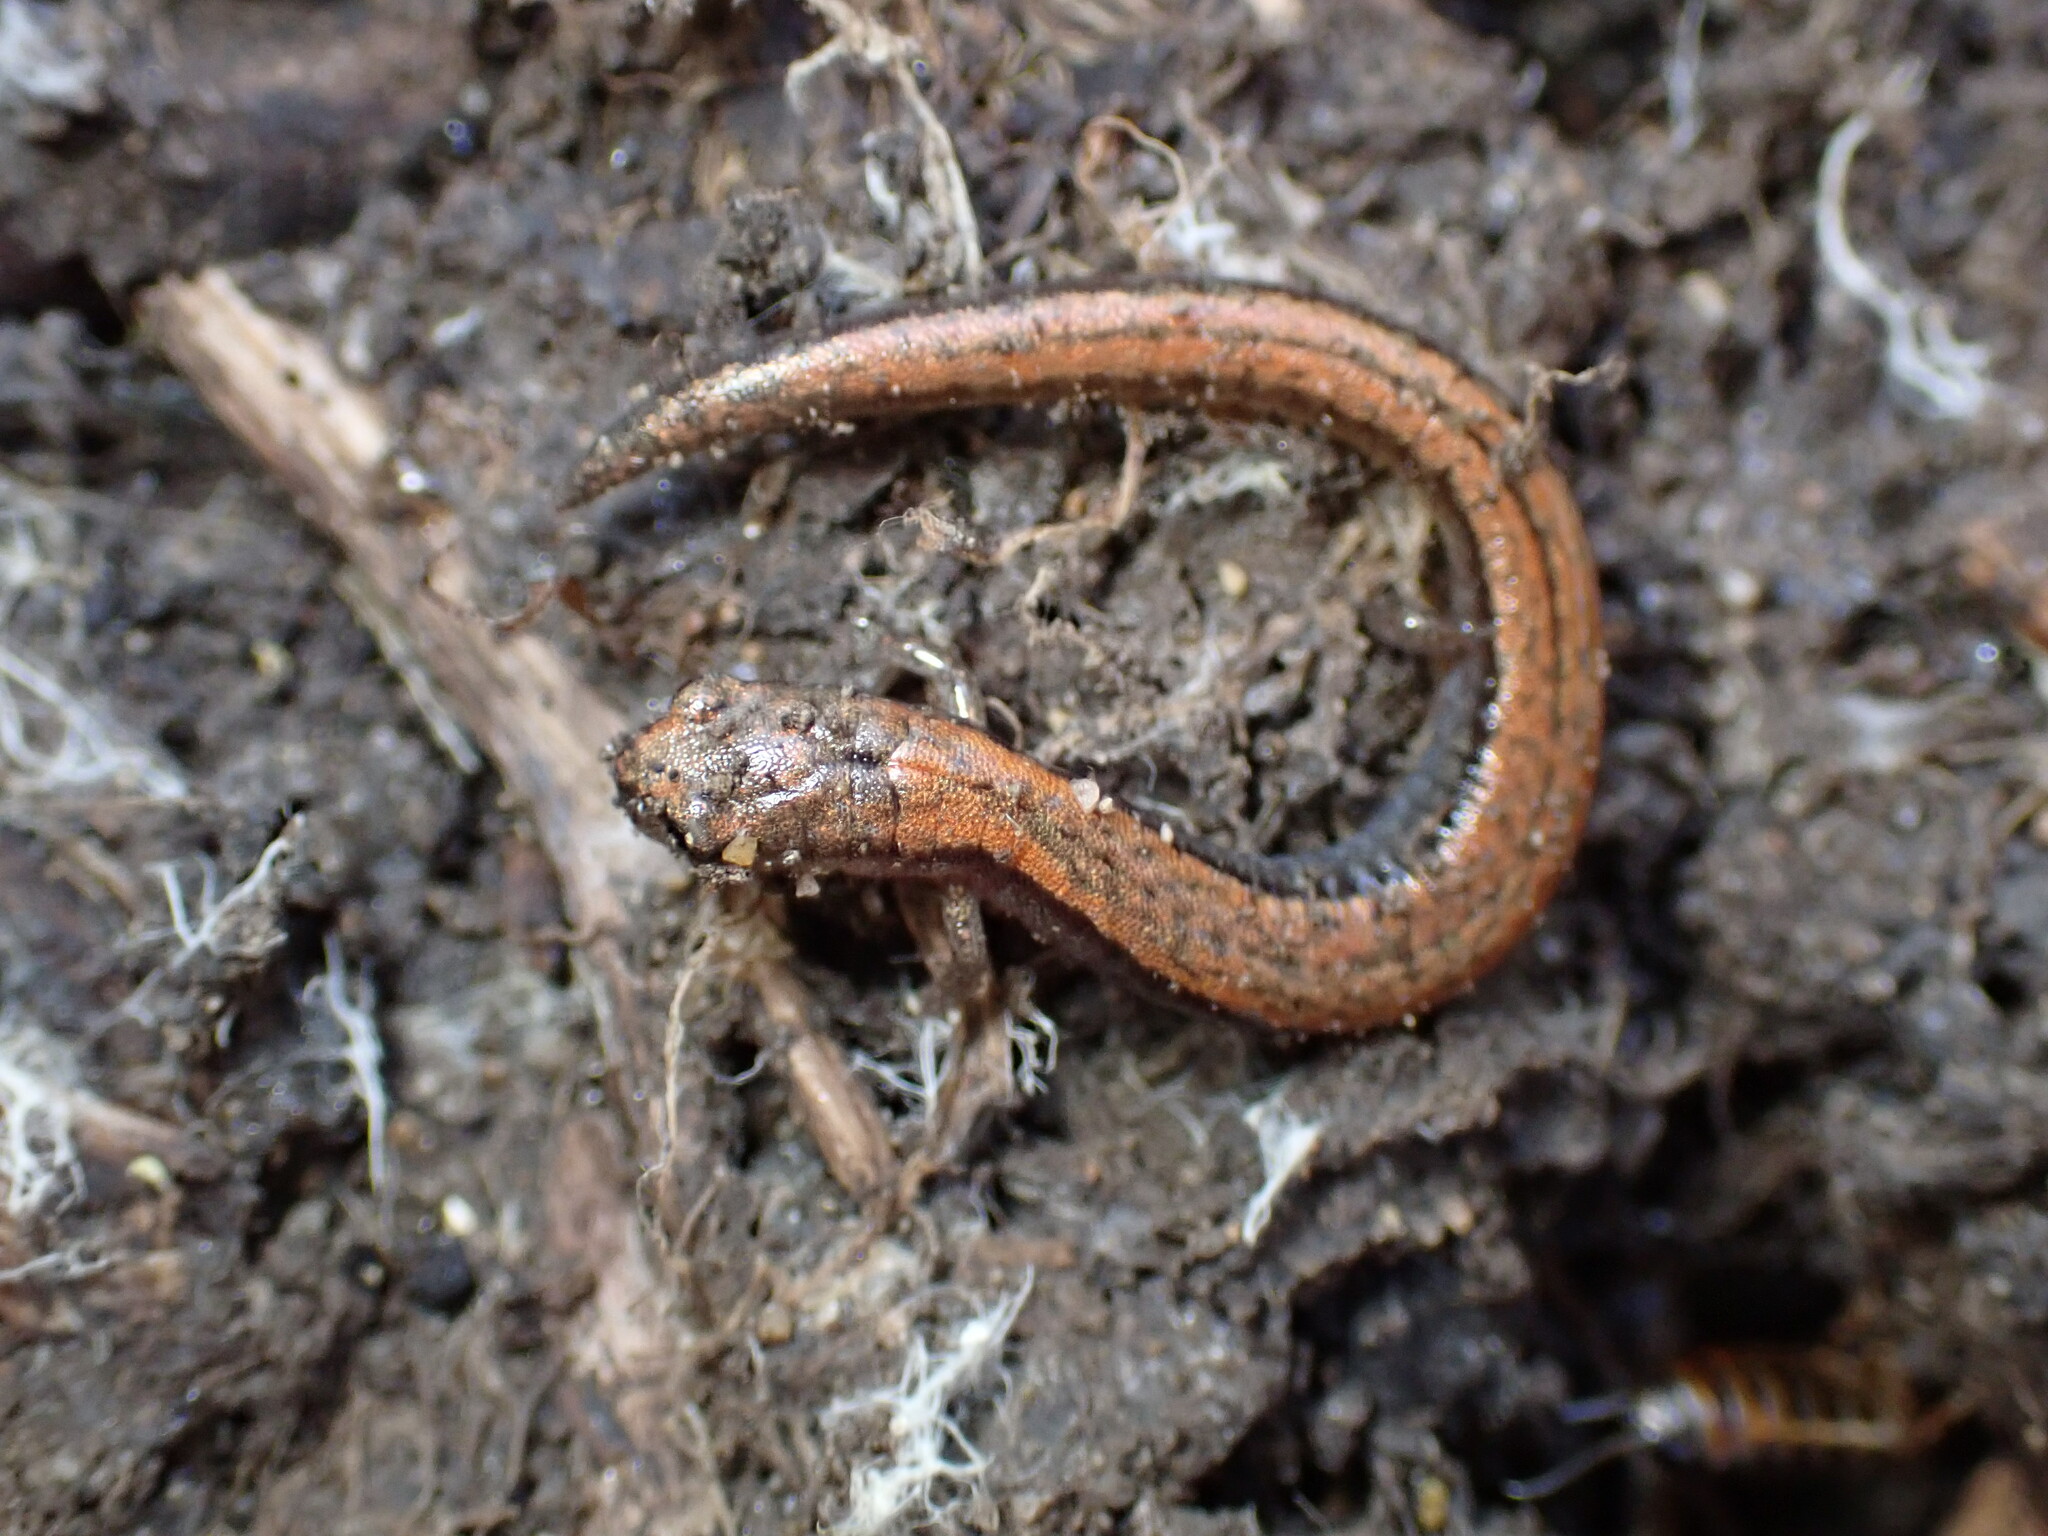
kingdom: Animalia
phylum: Chordata
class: Amphibia
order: Caudata
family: Plethodontidae
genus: Batrachoseps
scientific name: Batrachoseps attenuatus
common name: California slender salamander
